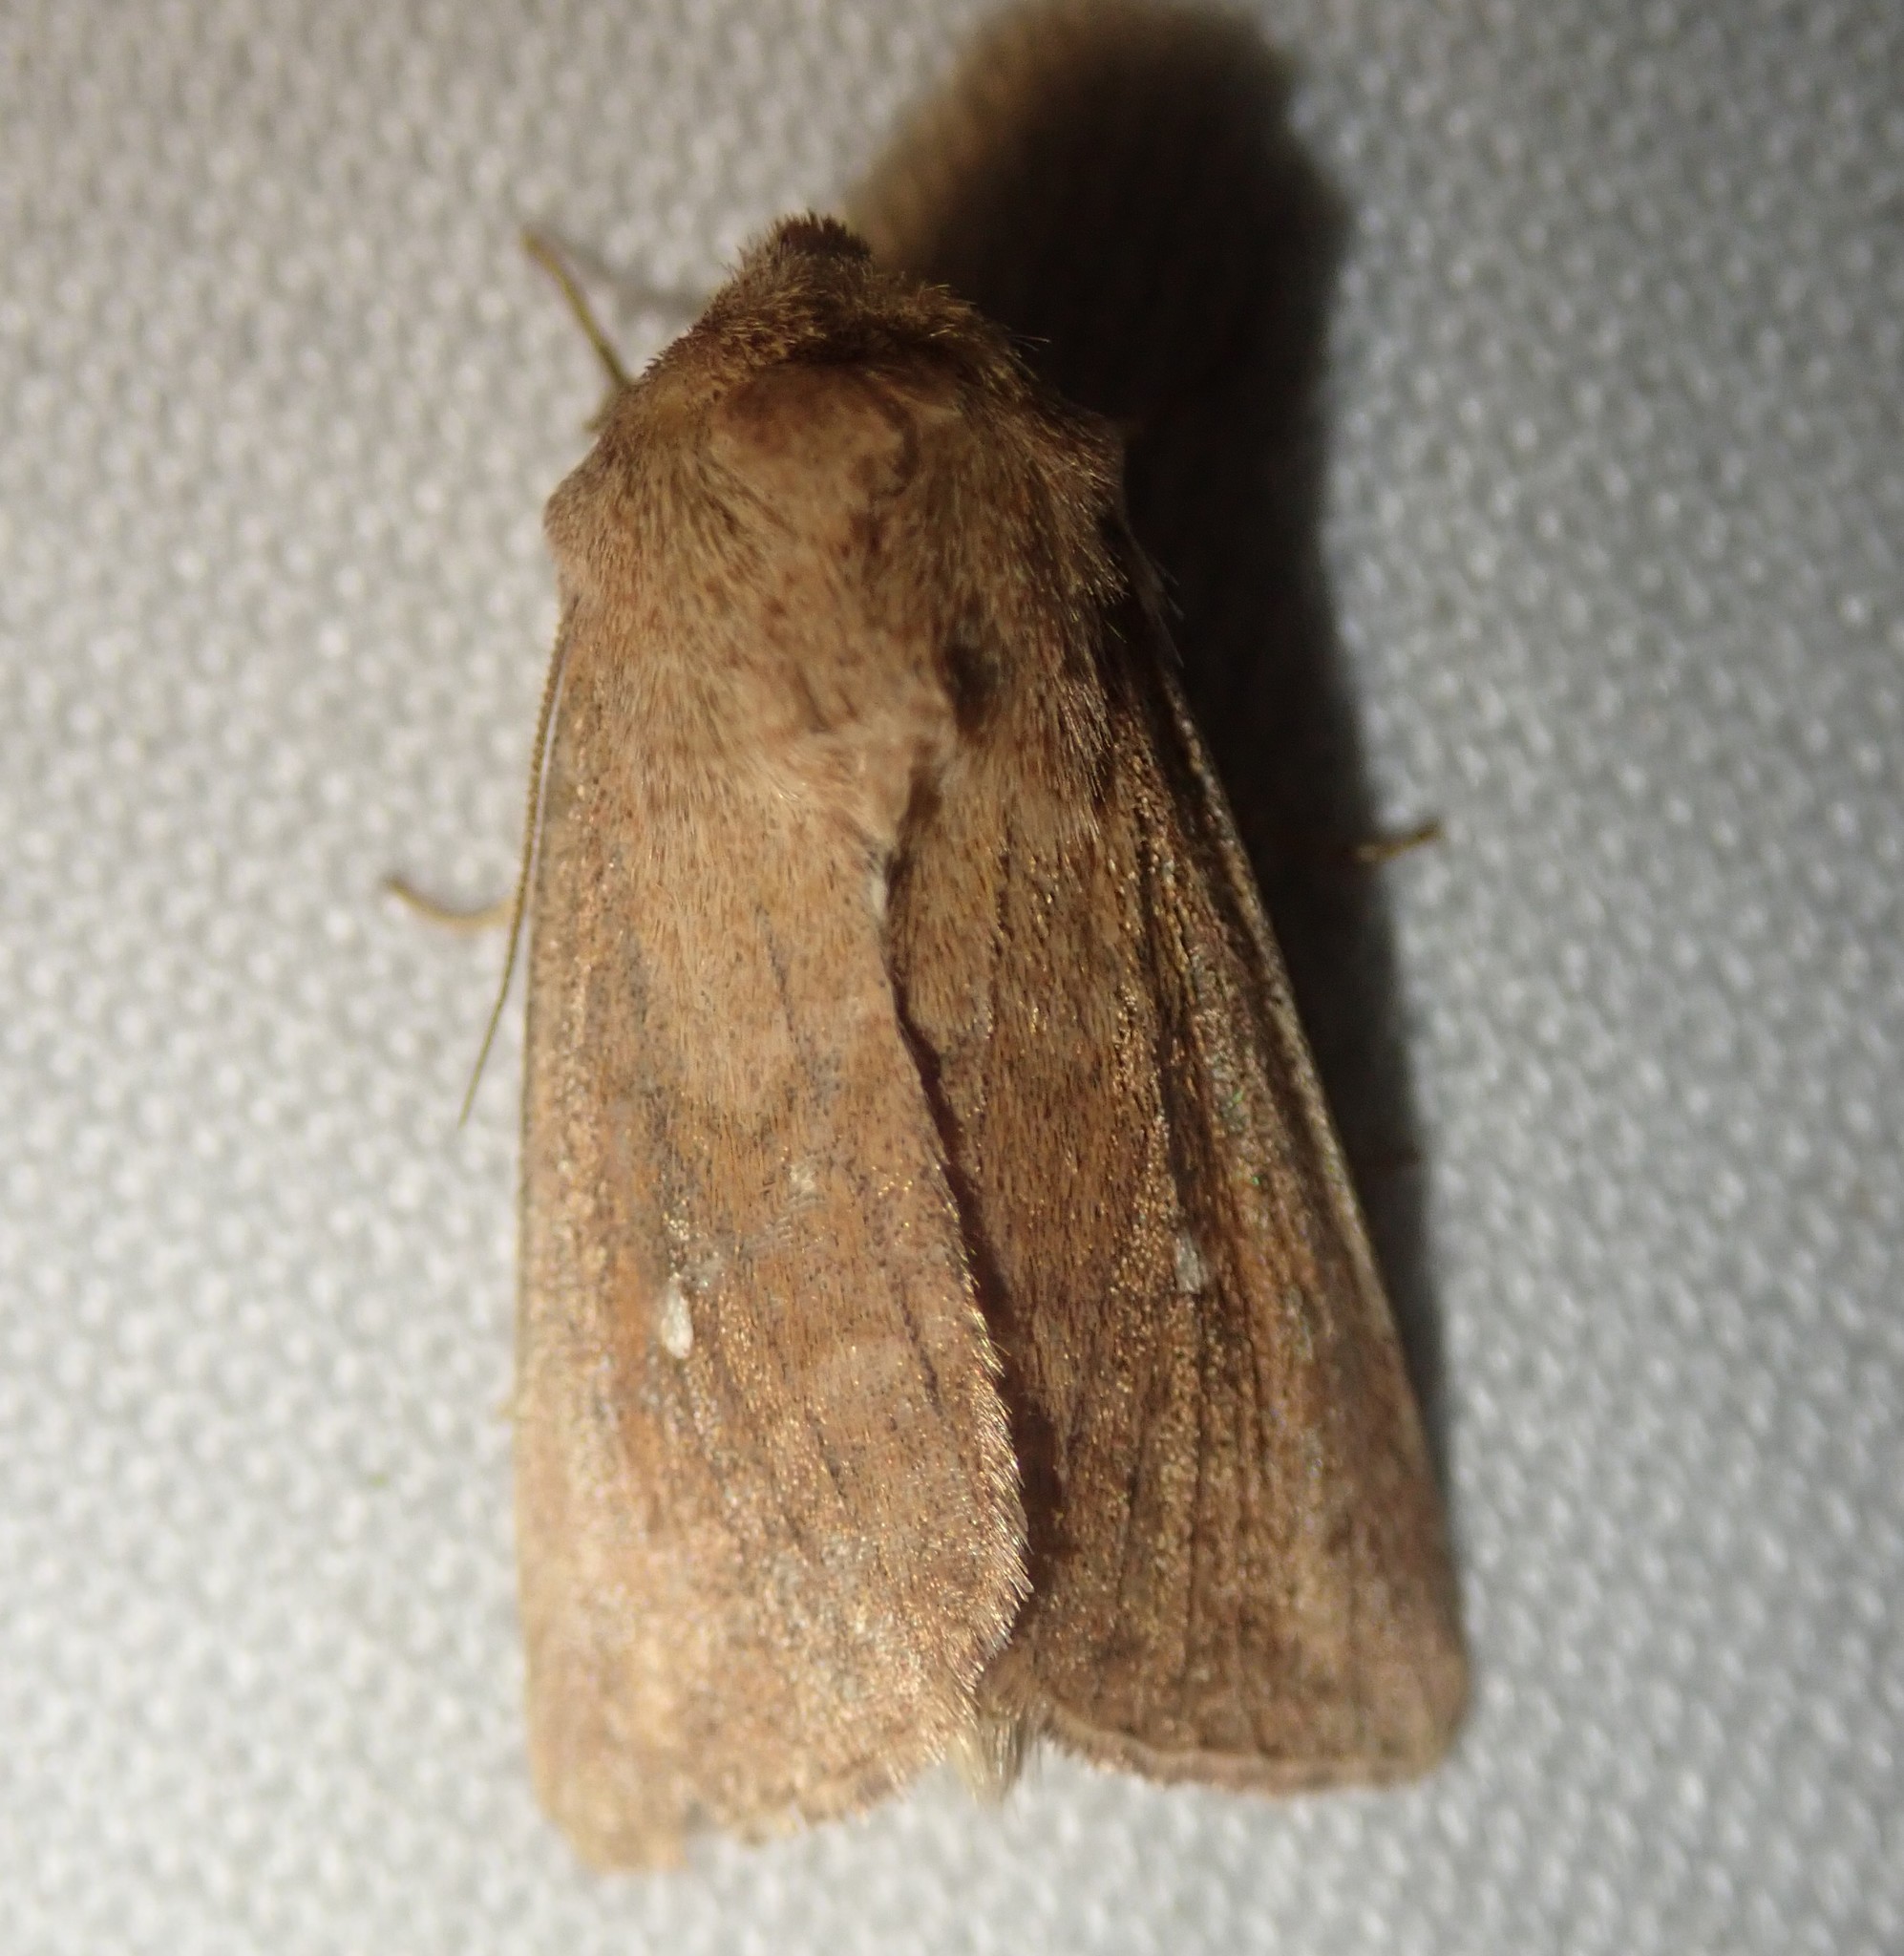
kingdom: Animalia
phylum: Arthropoda
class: Insecta
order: Lepidoptera
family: Noctuidae
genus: Mythimna
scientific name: Mythimna albipuncta
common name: White-point
